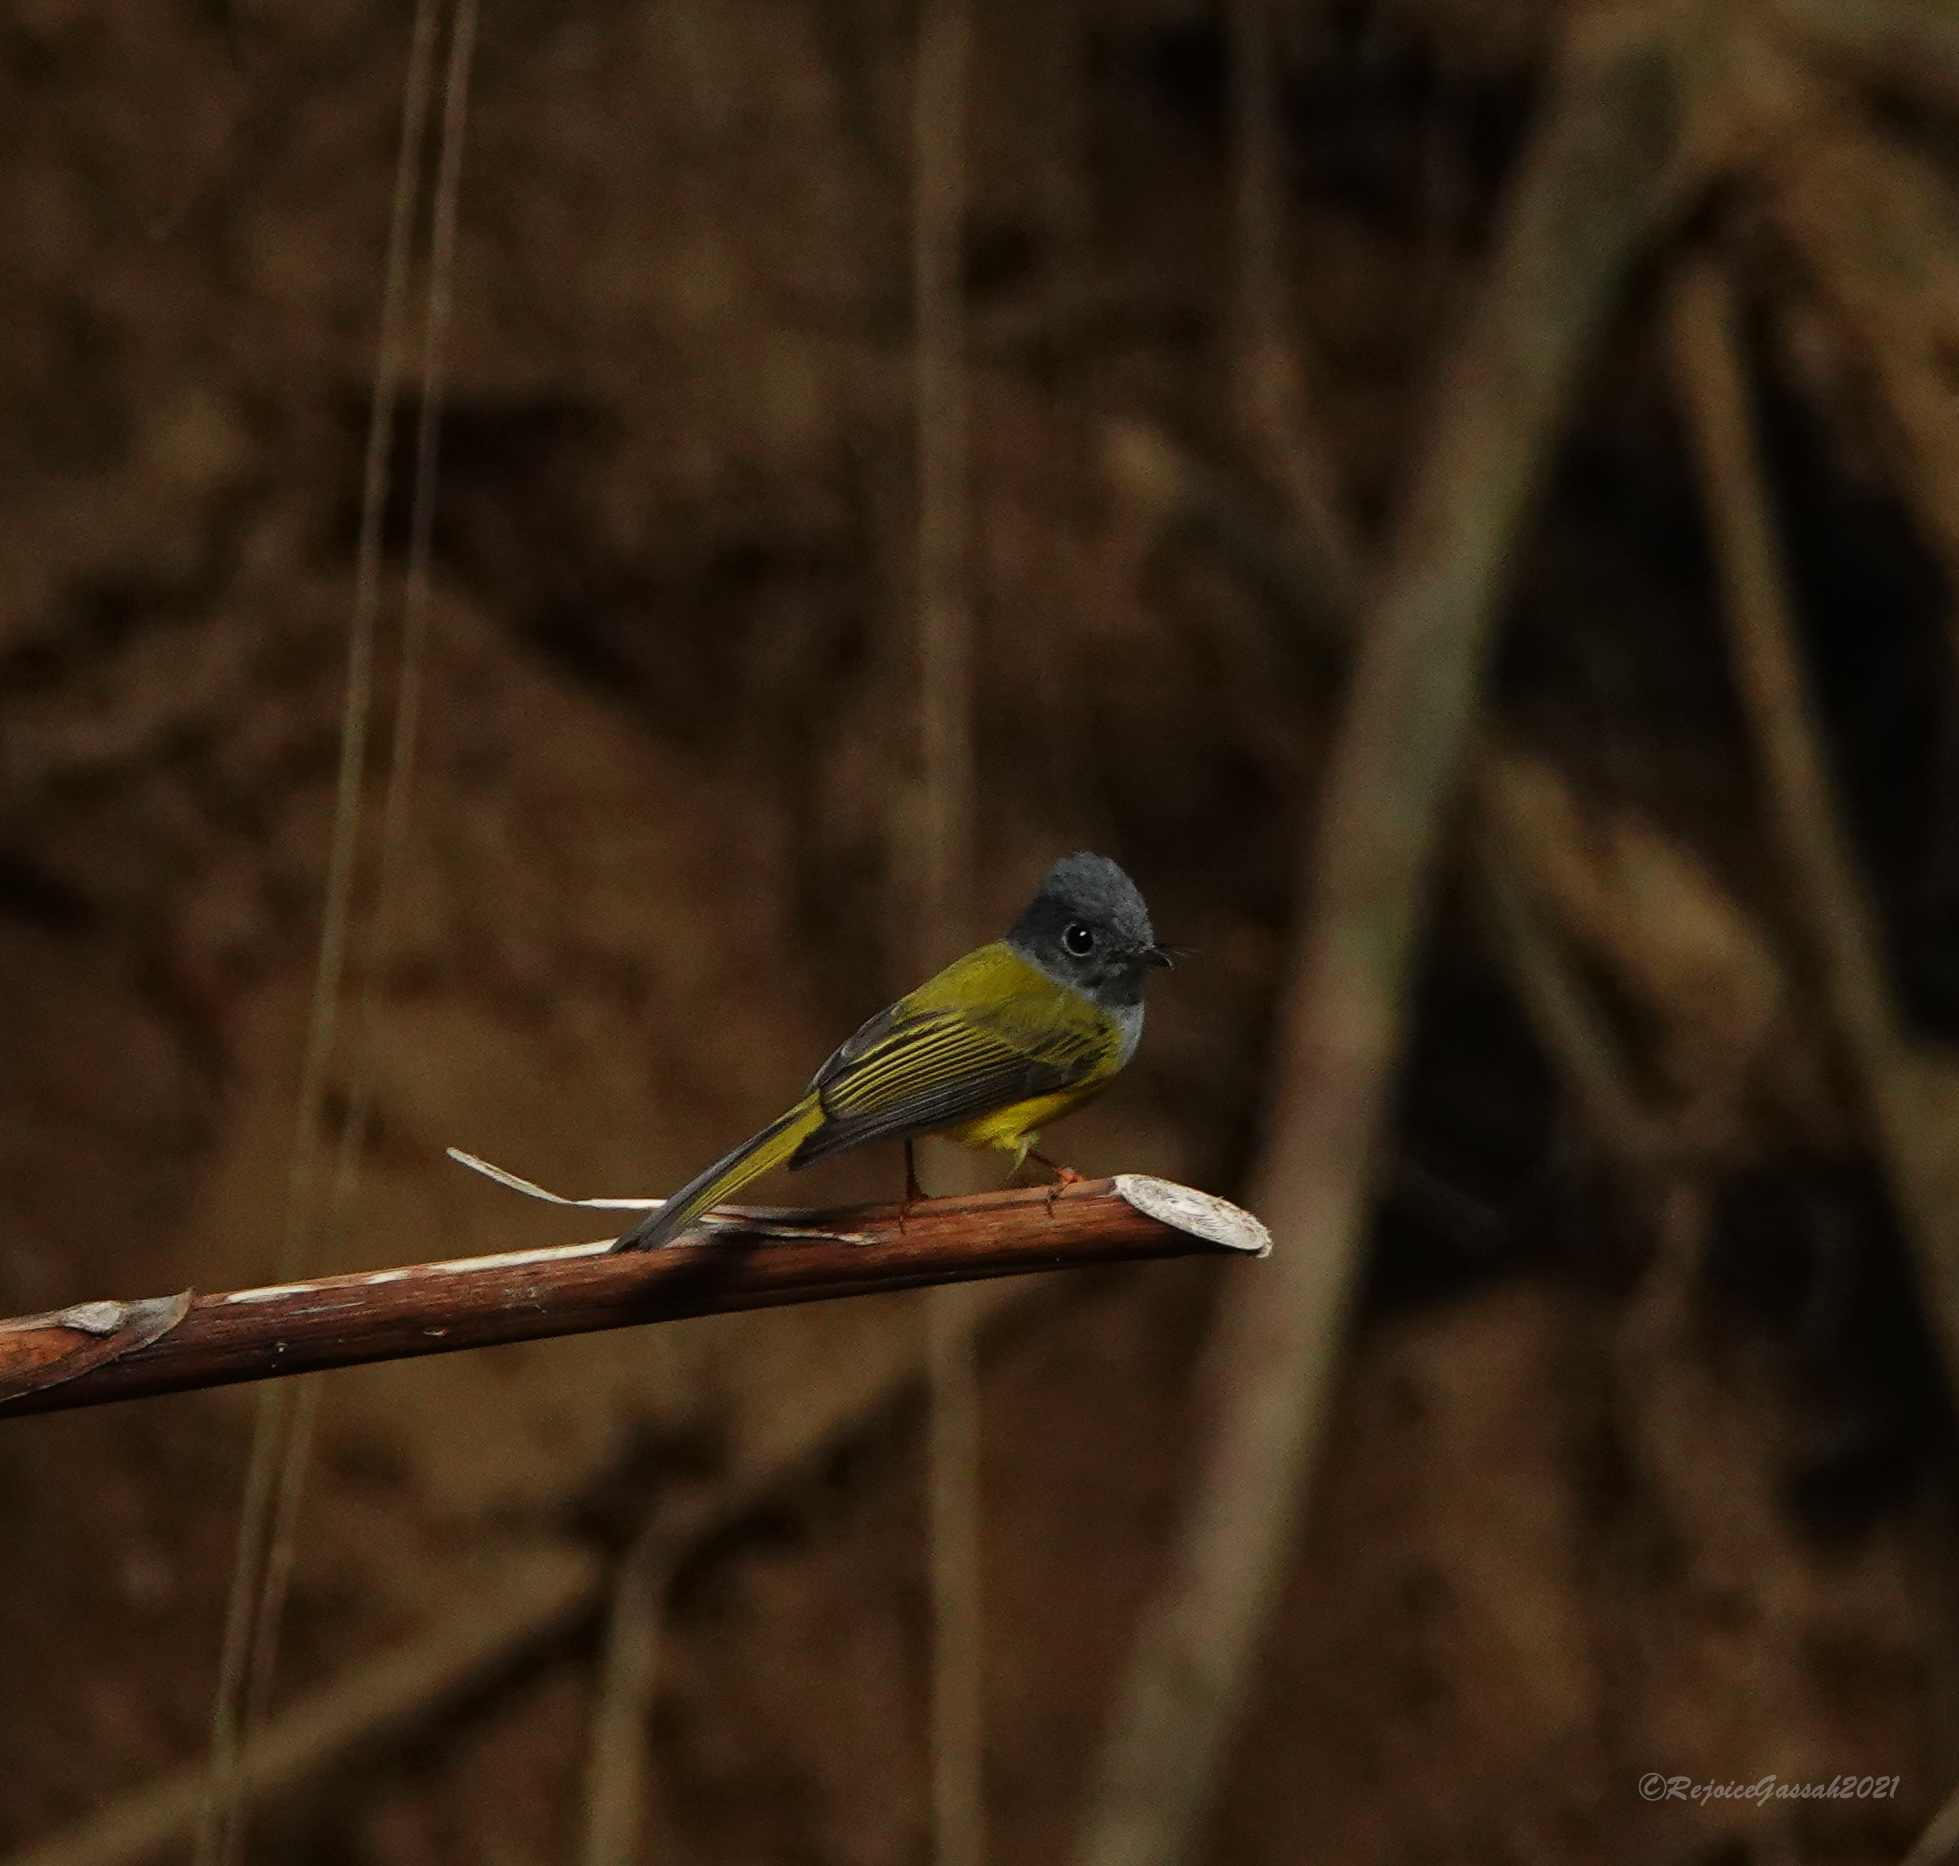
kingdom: Animalia
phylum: Chordata
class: Aves
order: Passeriformes
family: Stenostiridae
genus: Culicicapa
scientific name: Culicicapa ceylonensis
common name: Grey-headed canary-flycatcher
